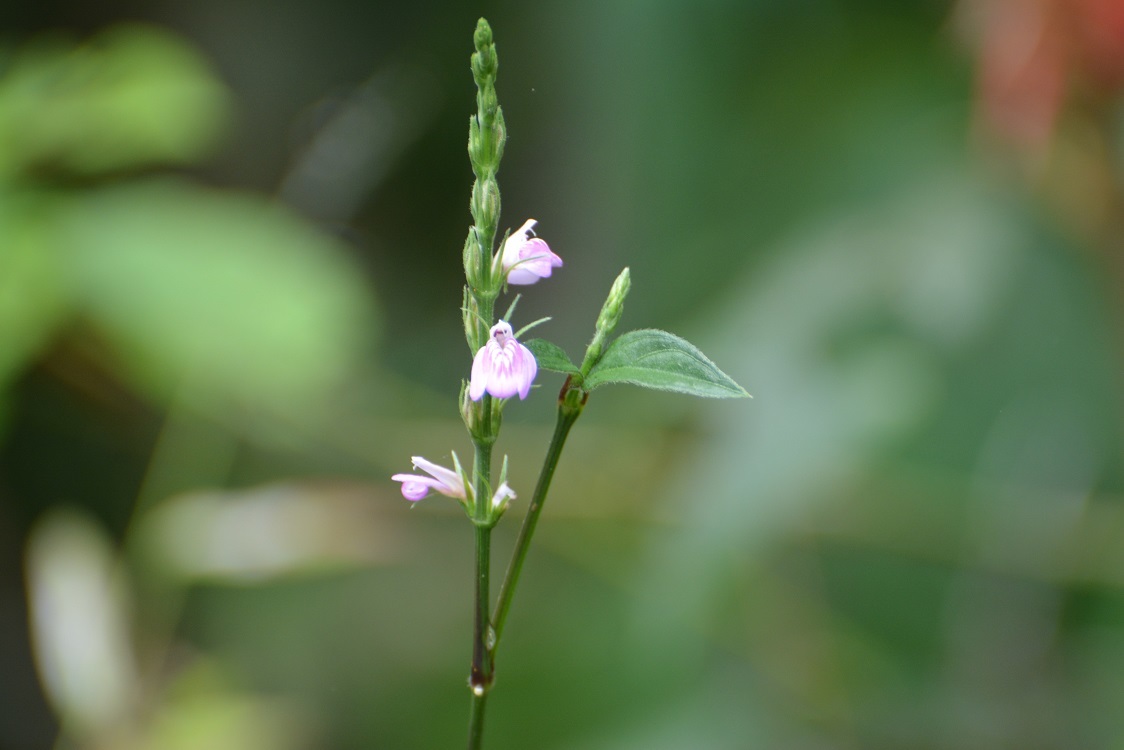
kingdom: Plantae
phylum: Tracheophyta
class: Magnoliopsida
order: Lamiales
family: Acanthaceae
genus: Justicia
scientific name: Justicia comata
